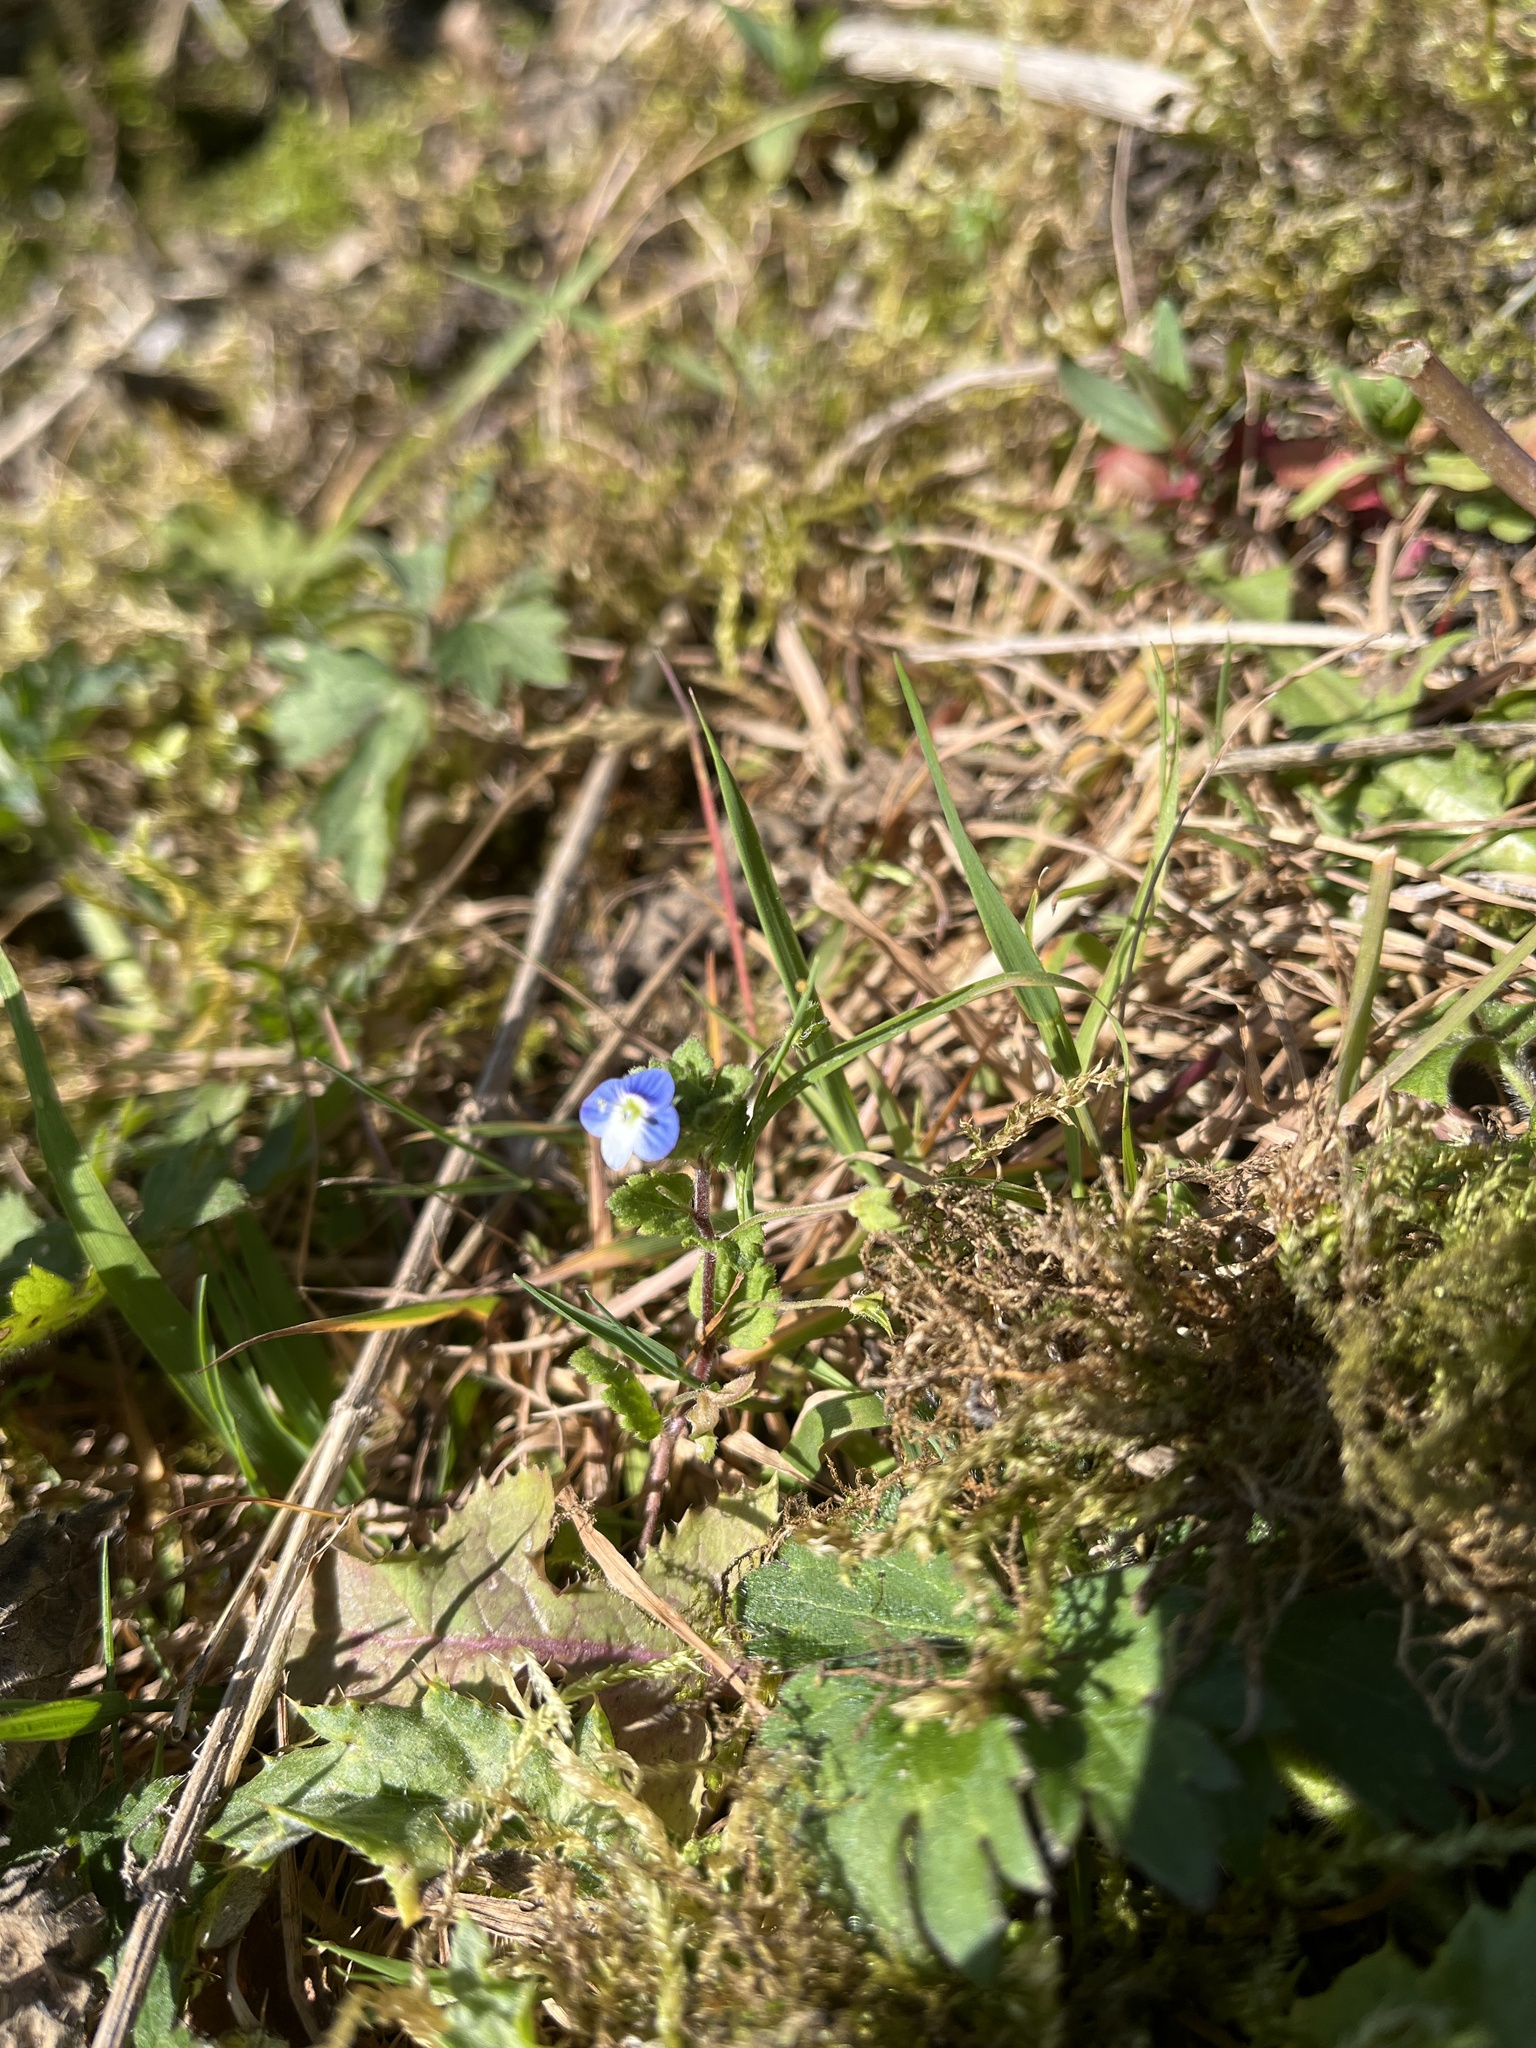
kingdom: Plantae
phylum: Tracheophyta
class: Magnoliopsida
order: Lamiales
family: Plantaginaceae
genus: Veronica
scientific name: Veronica persica
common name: Common field-speedwell
